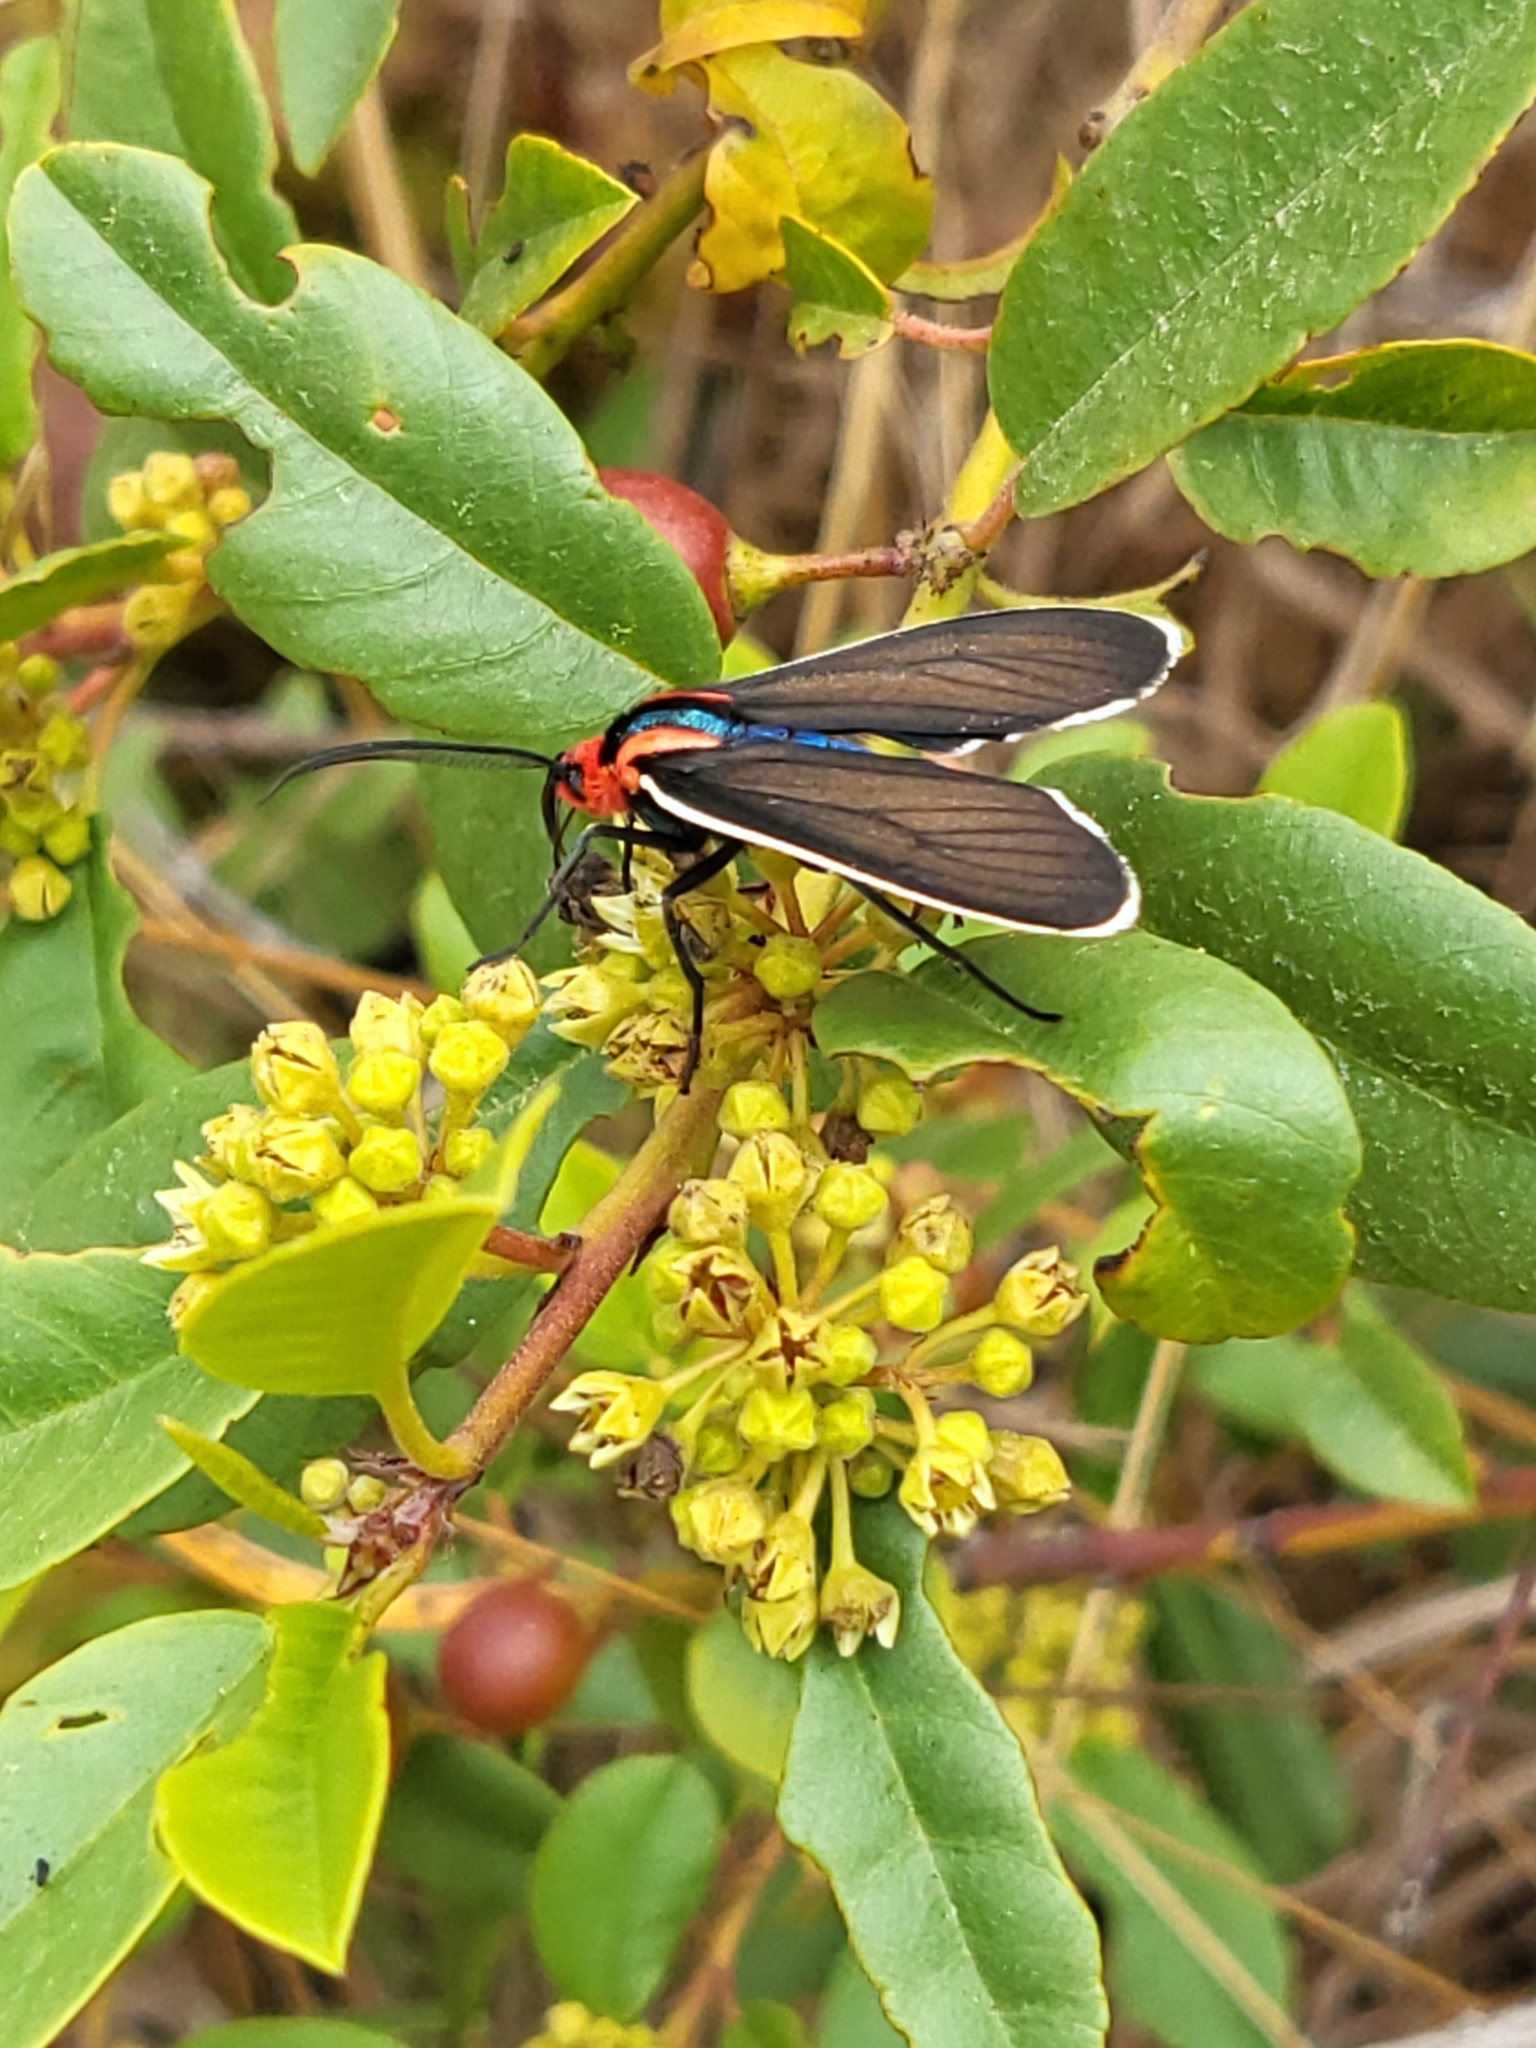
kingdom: Animalia
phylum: Arthropoda
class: Insecta
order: Lepidoptera
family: Erebidae
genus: Ctenucha
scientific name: Ctenucha brunnea
